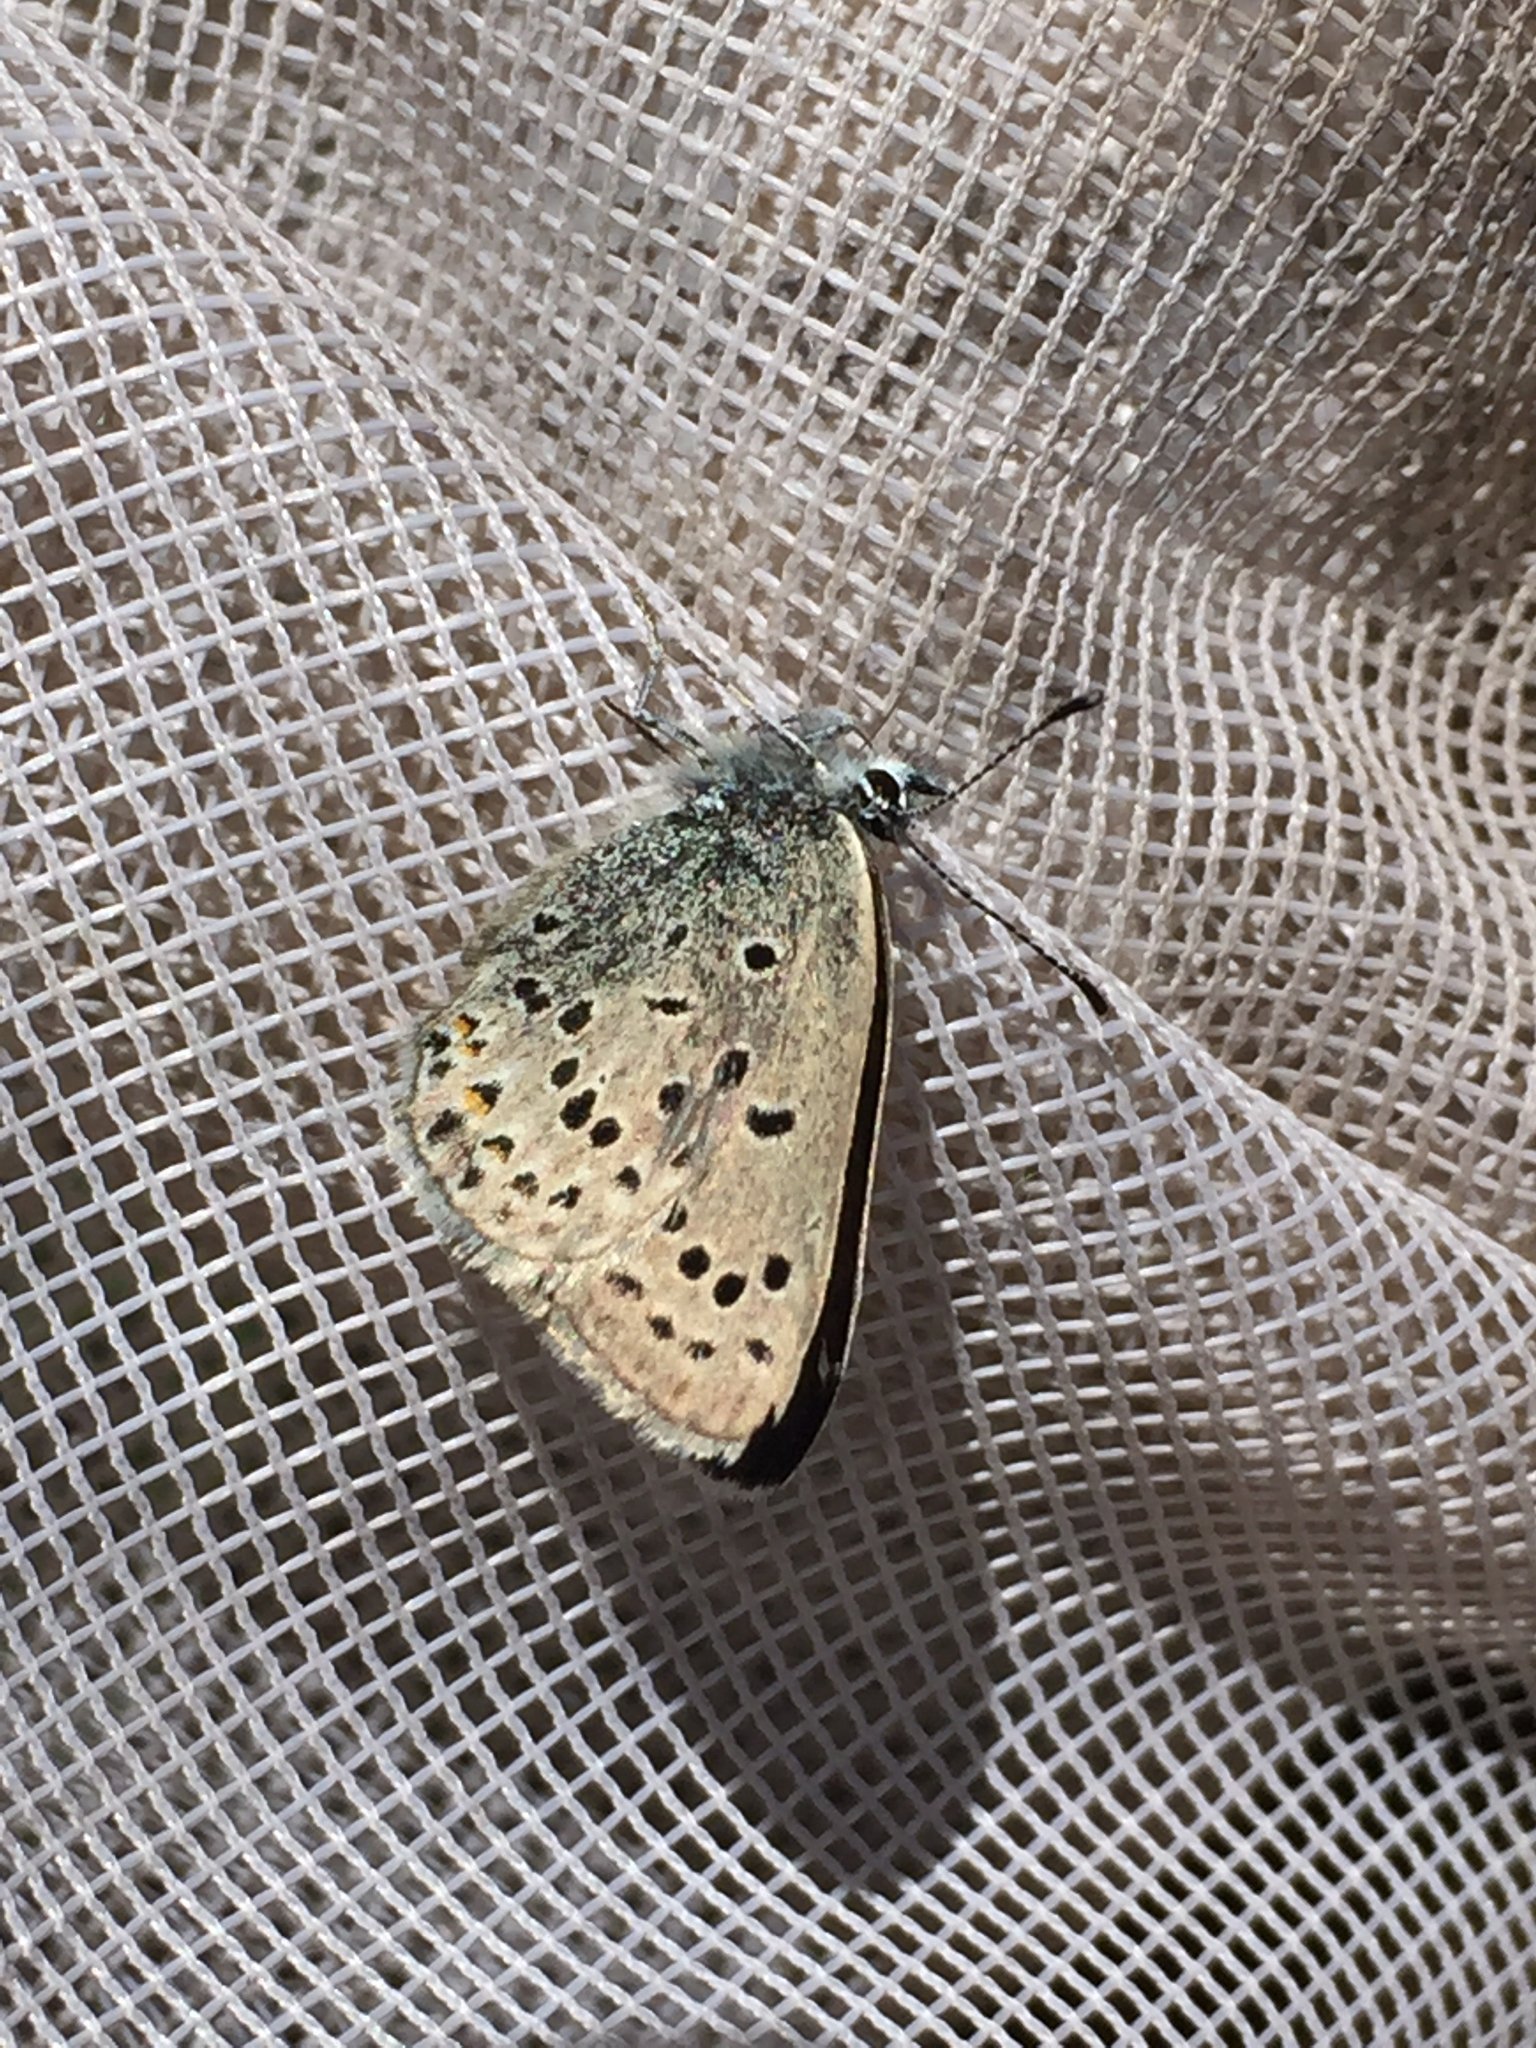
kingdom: Animalia
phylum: Arthropoda
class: Insecta
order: Lepidoptera
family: Lycaenidae
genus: Icaricia
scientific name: Icaricia saepiolus
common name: Greenish blue
